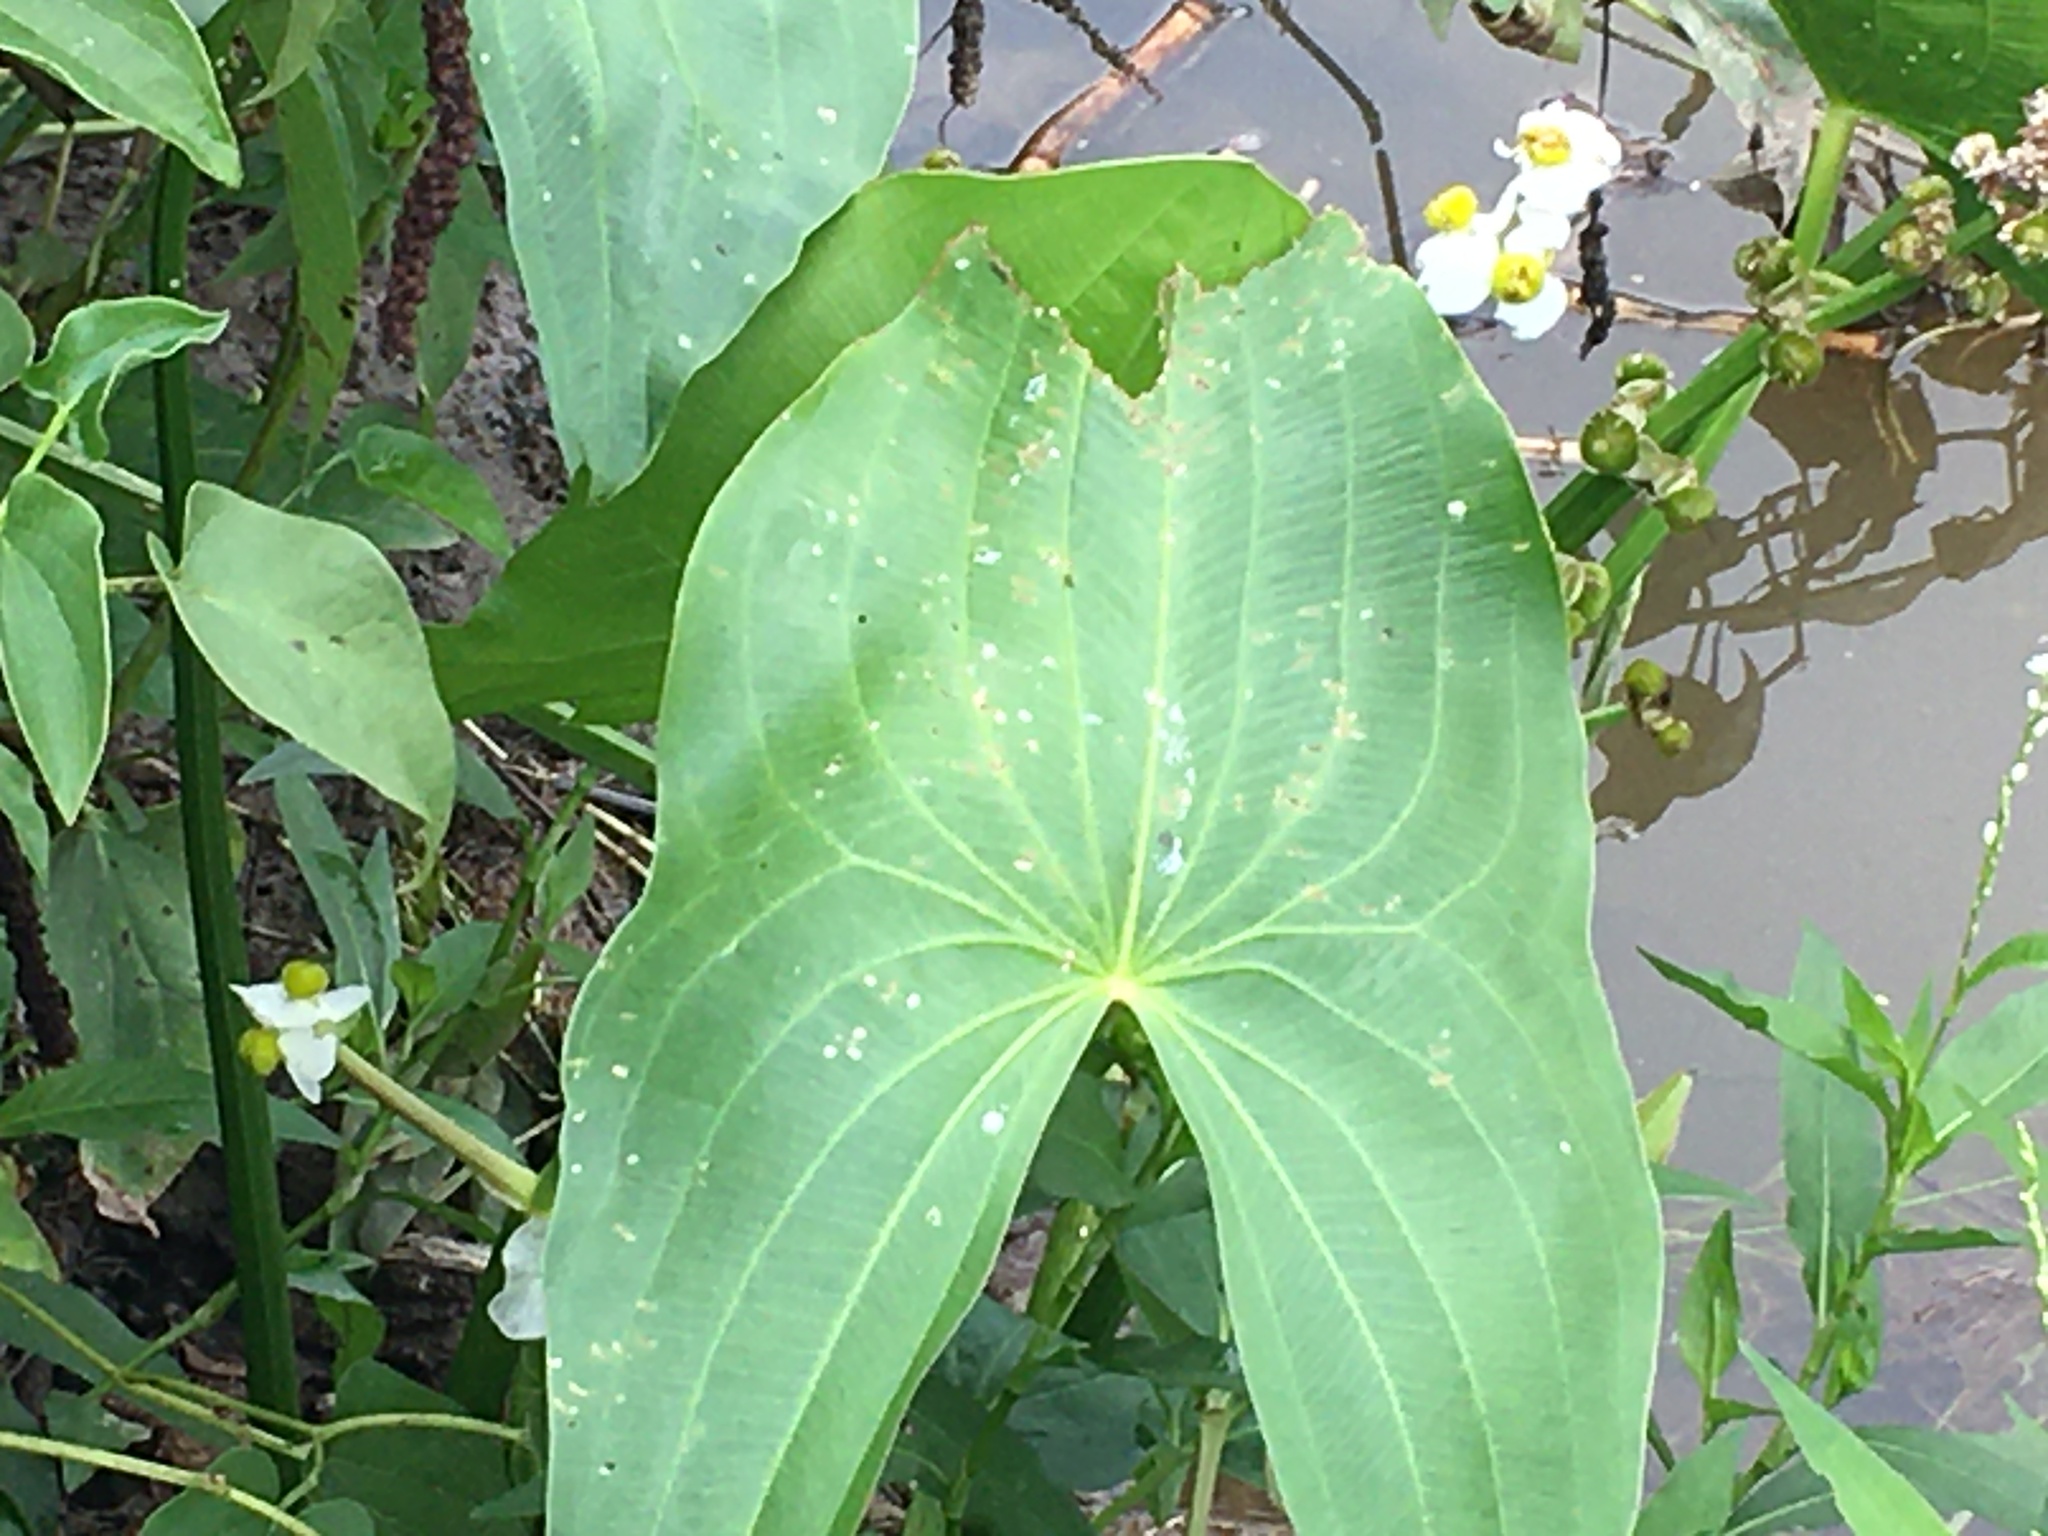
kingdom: Plantae
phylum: Tracheophyta
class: Liliopsida
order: Alismatales
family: Alismataceae
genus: Sagittaria
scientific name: Sagittaria latifolia
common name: Duck-potato
